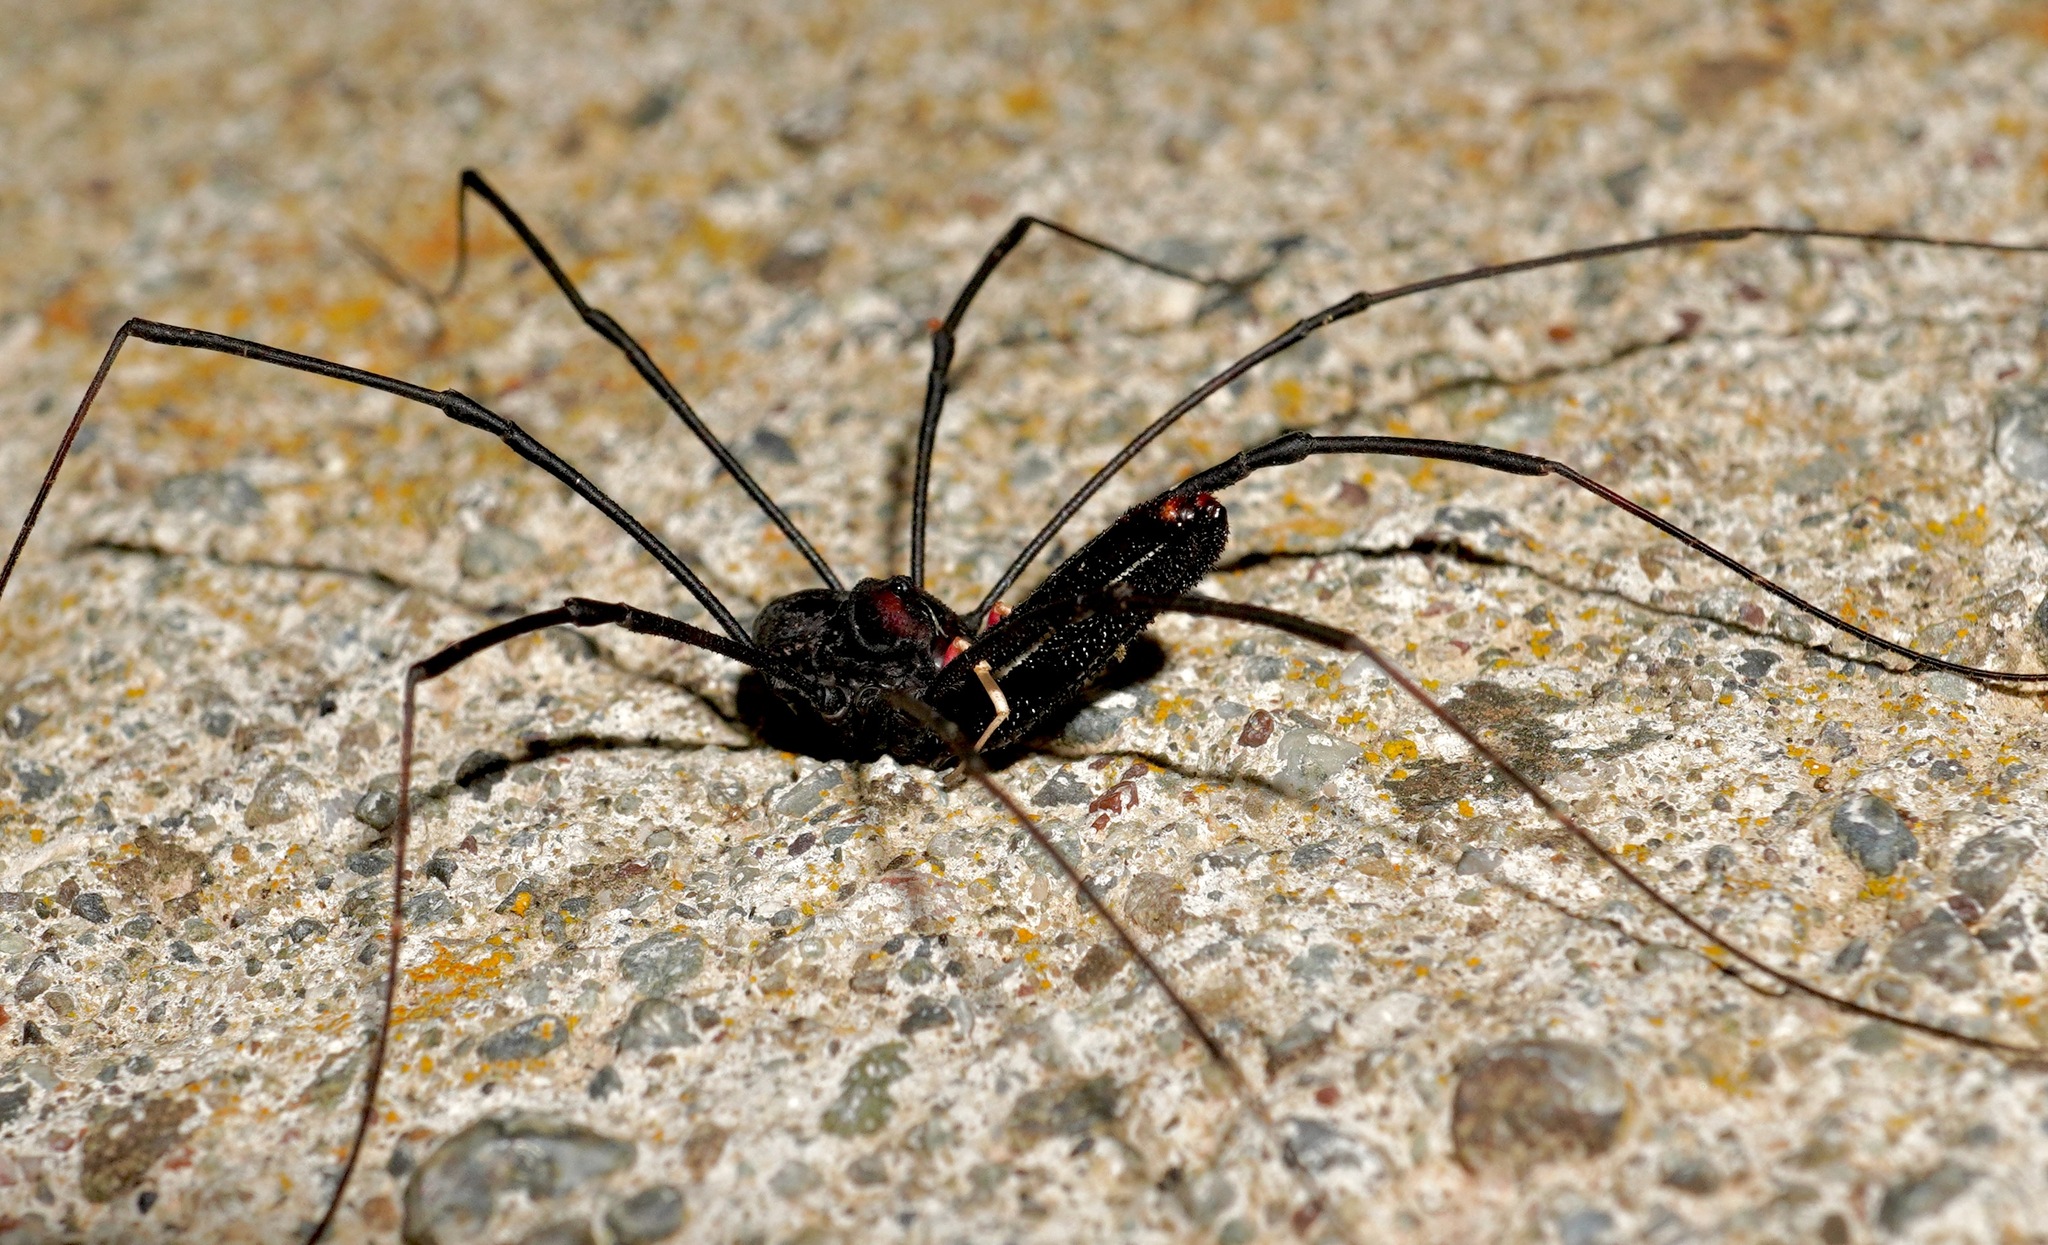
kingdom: Animalia
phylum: Arthropoda
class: Arachnida
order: Opiliones
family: Neopilionidae
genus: Forsteropsalis
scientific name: Forsteropsalis inconstans
